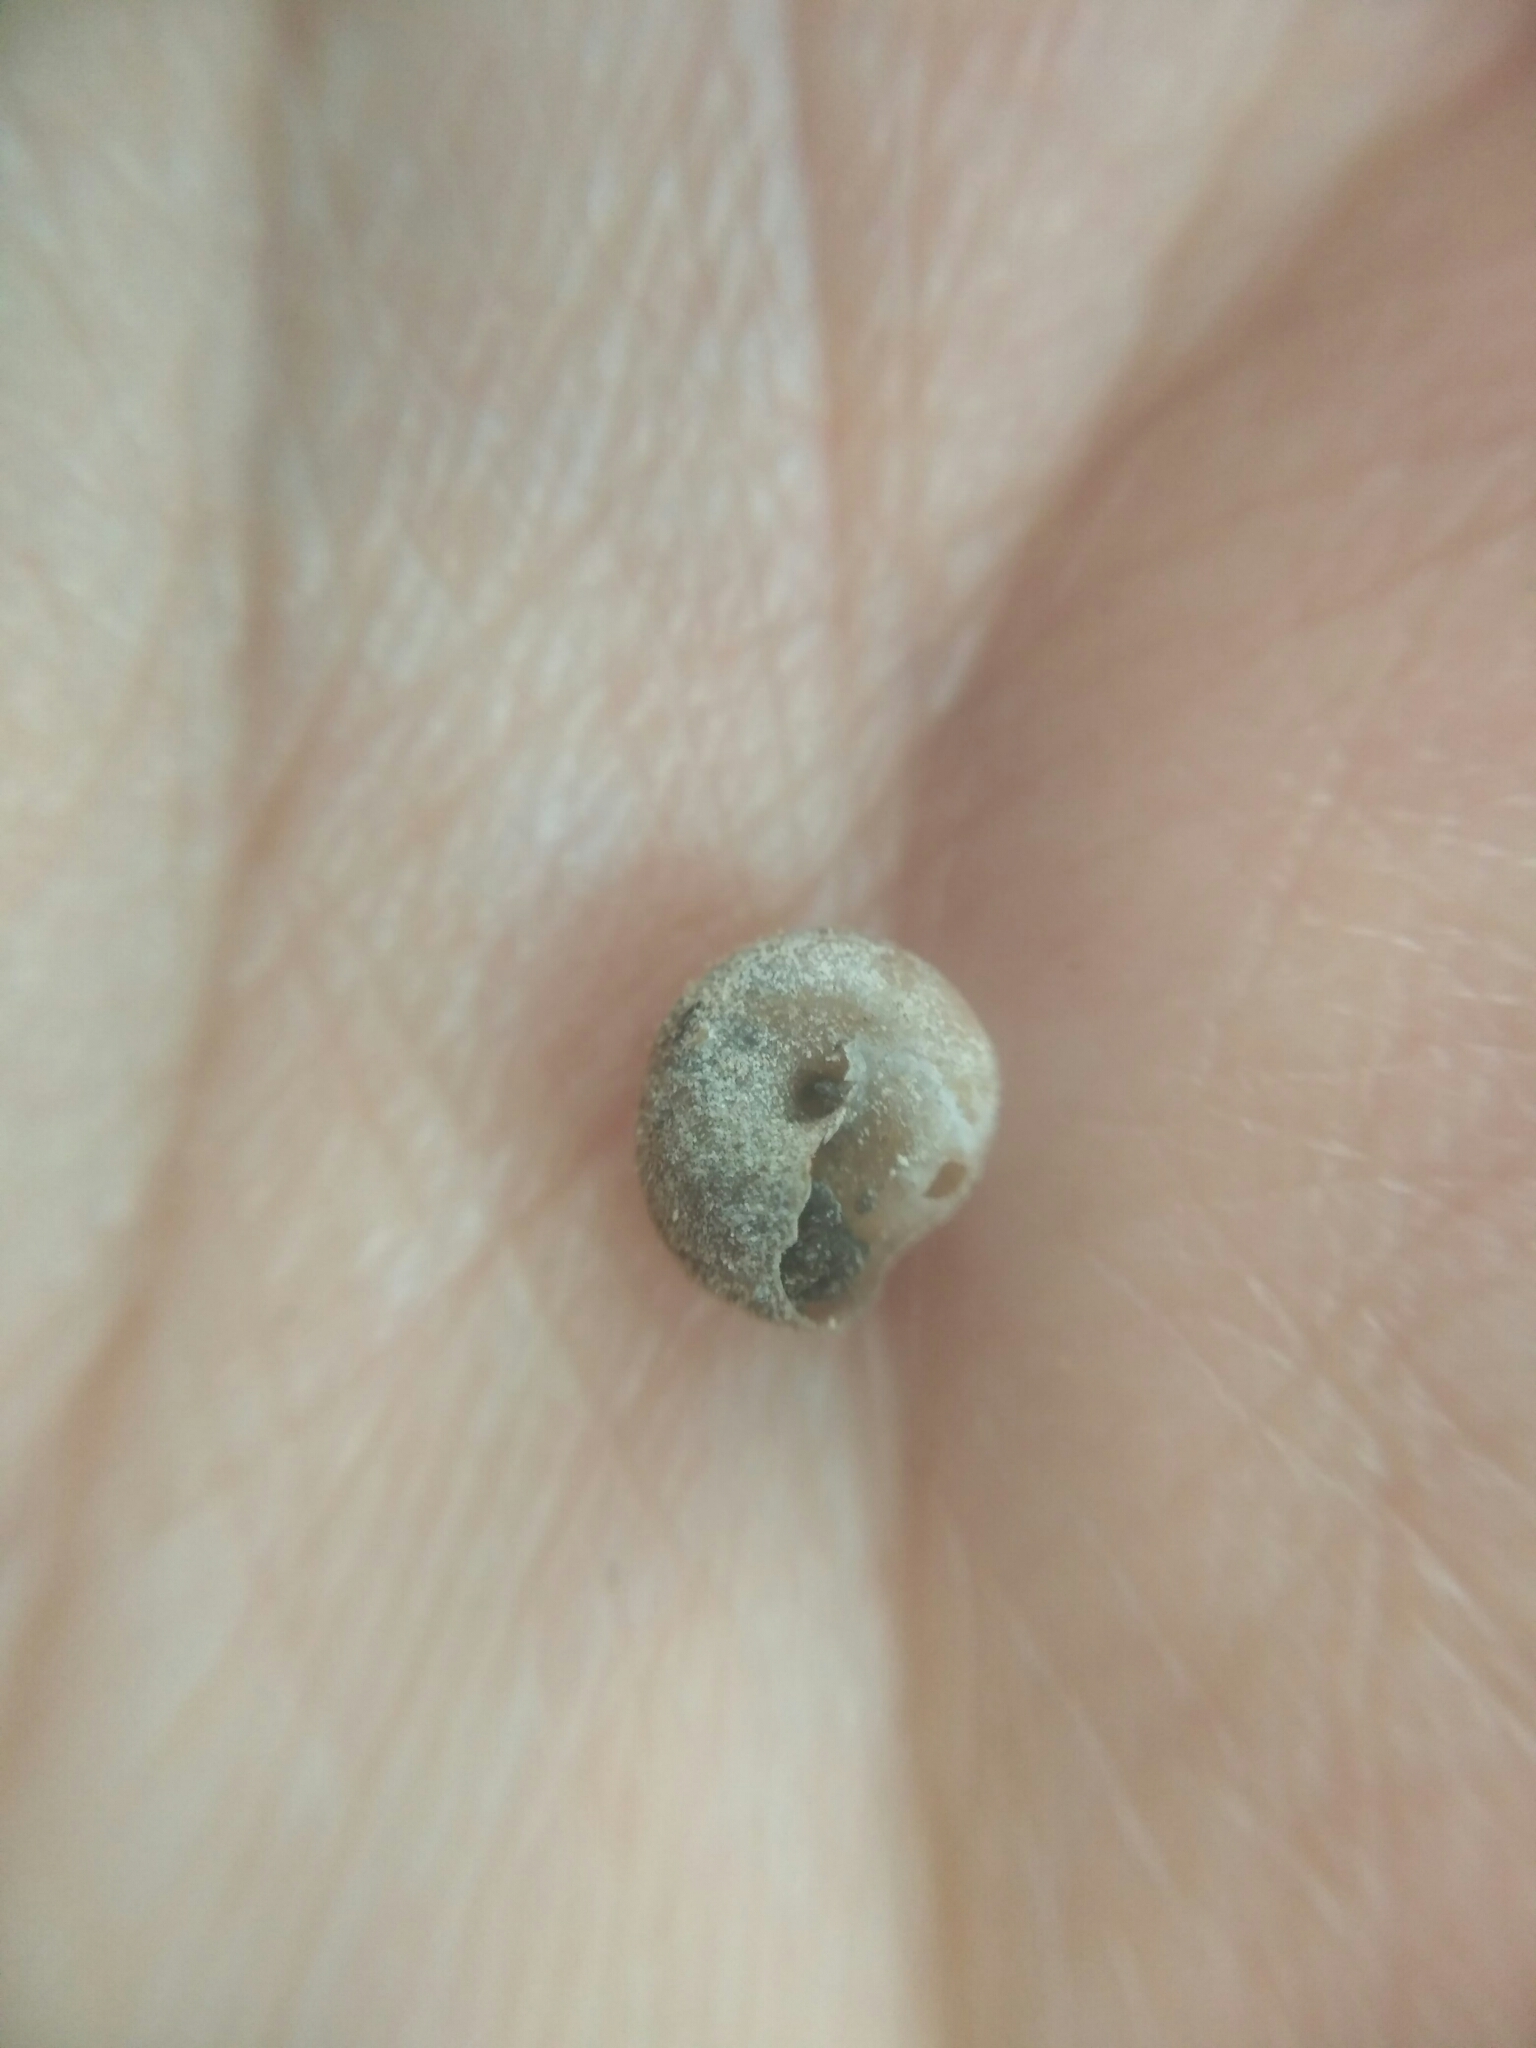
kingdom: Animalia
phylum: Mollusca
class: Gastropoda
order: Stylommatophora
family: Hygromiidae
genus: Pseudotrichia
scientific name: Pseudotrichia rubiginosa
